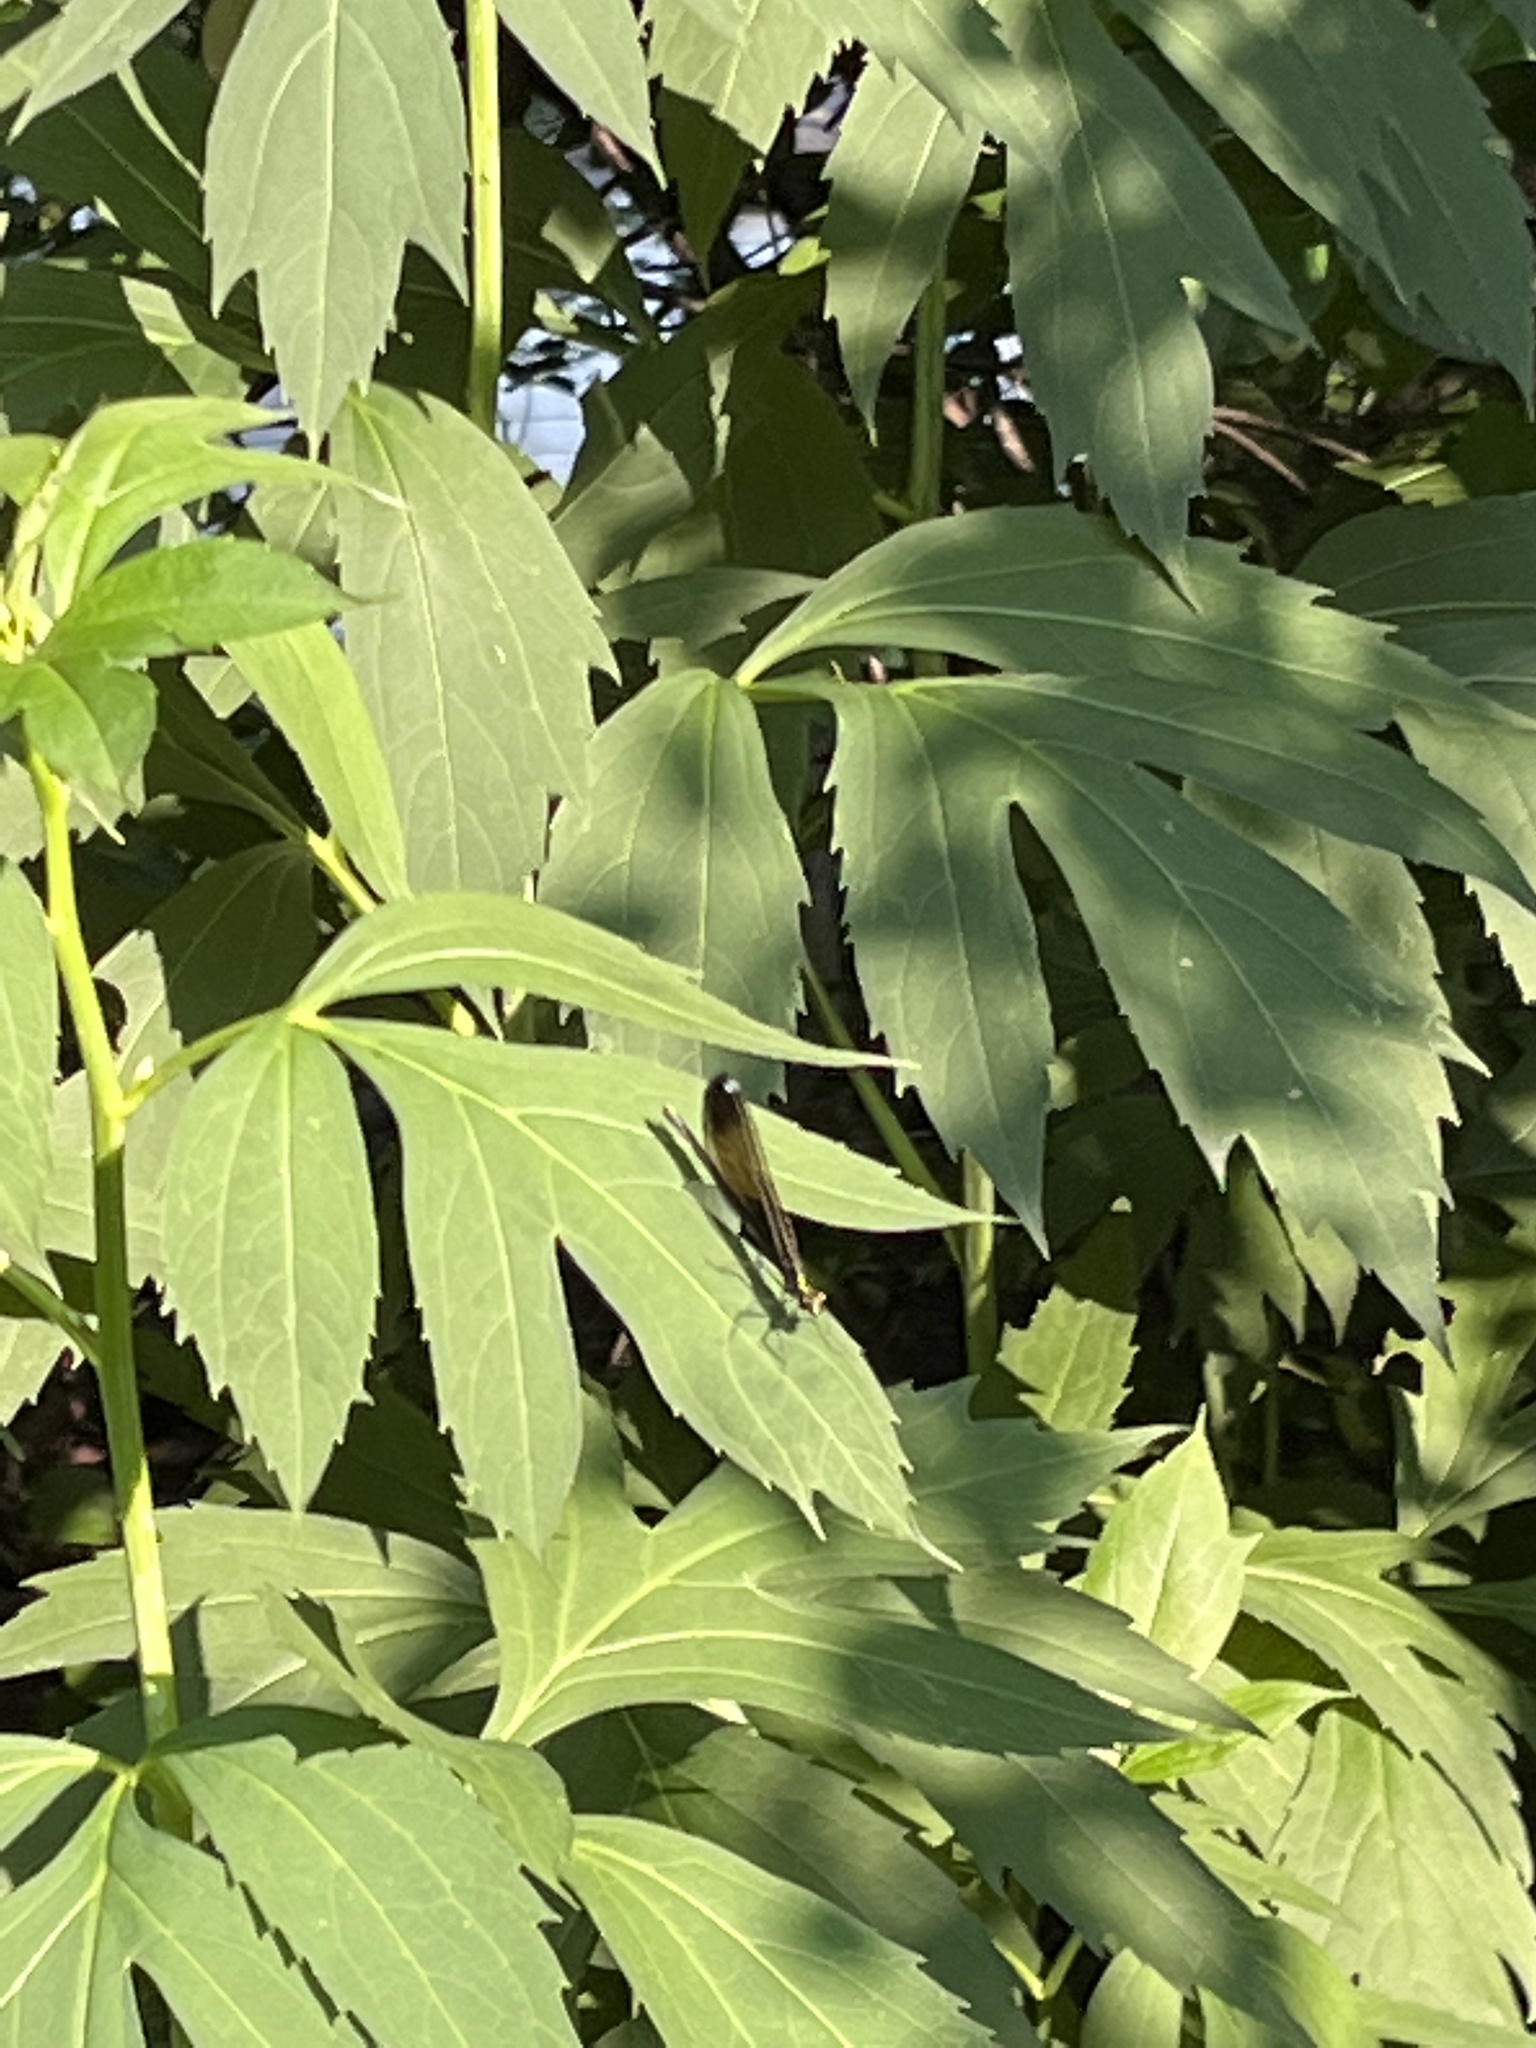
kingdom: Animalia
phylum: Arthropoda
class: Insecta
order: Odonata
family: Calopterygidae
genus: Calopteryx
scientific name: Calopteryx maculata
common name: Ebony jewelwing
